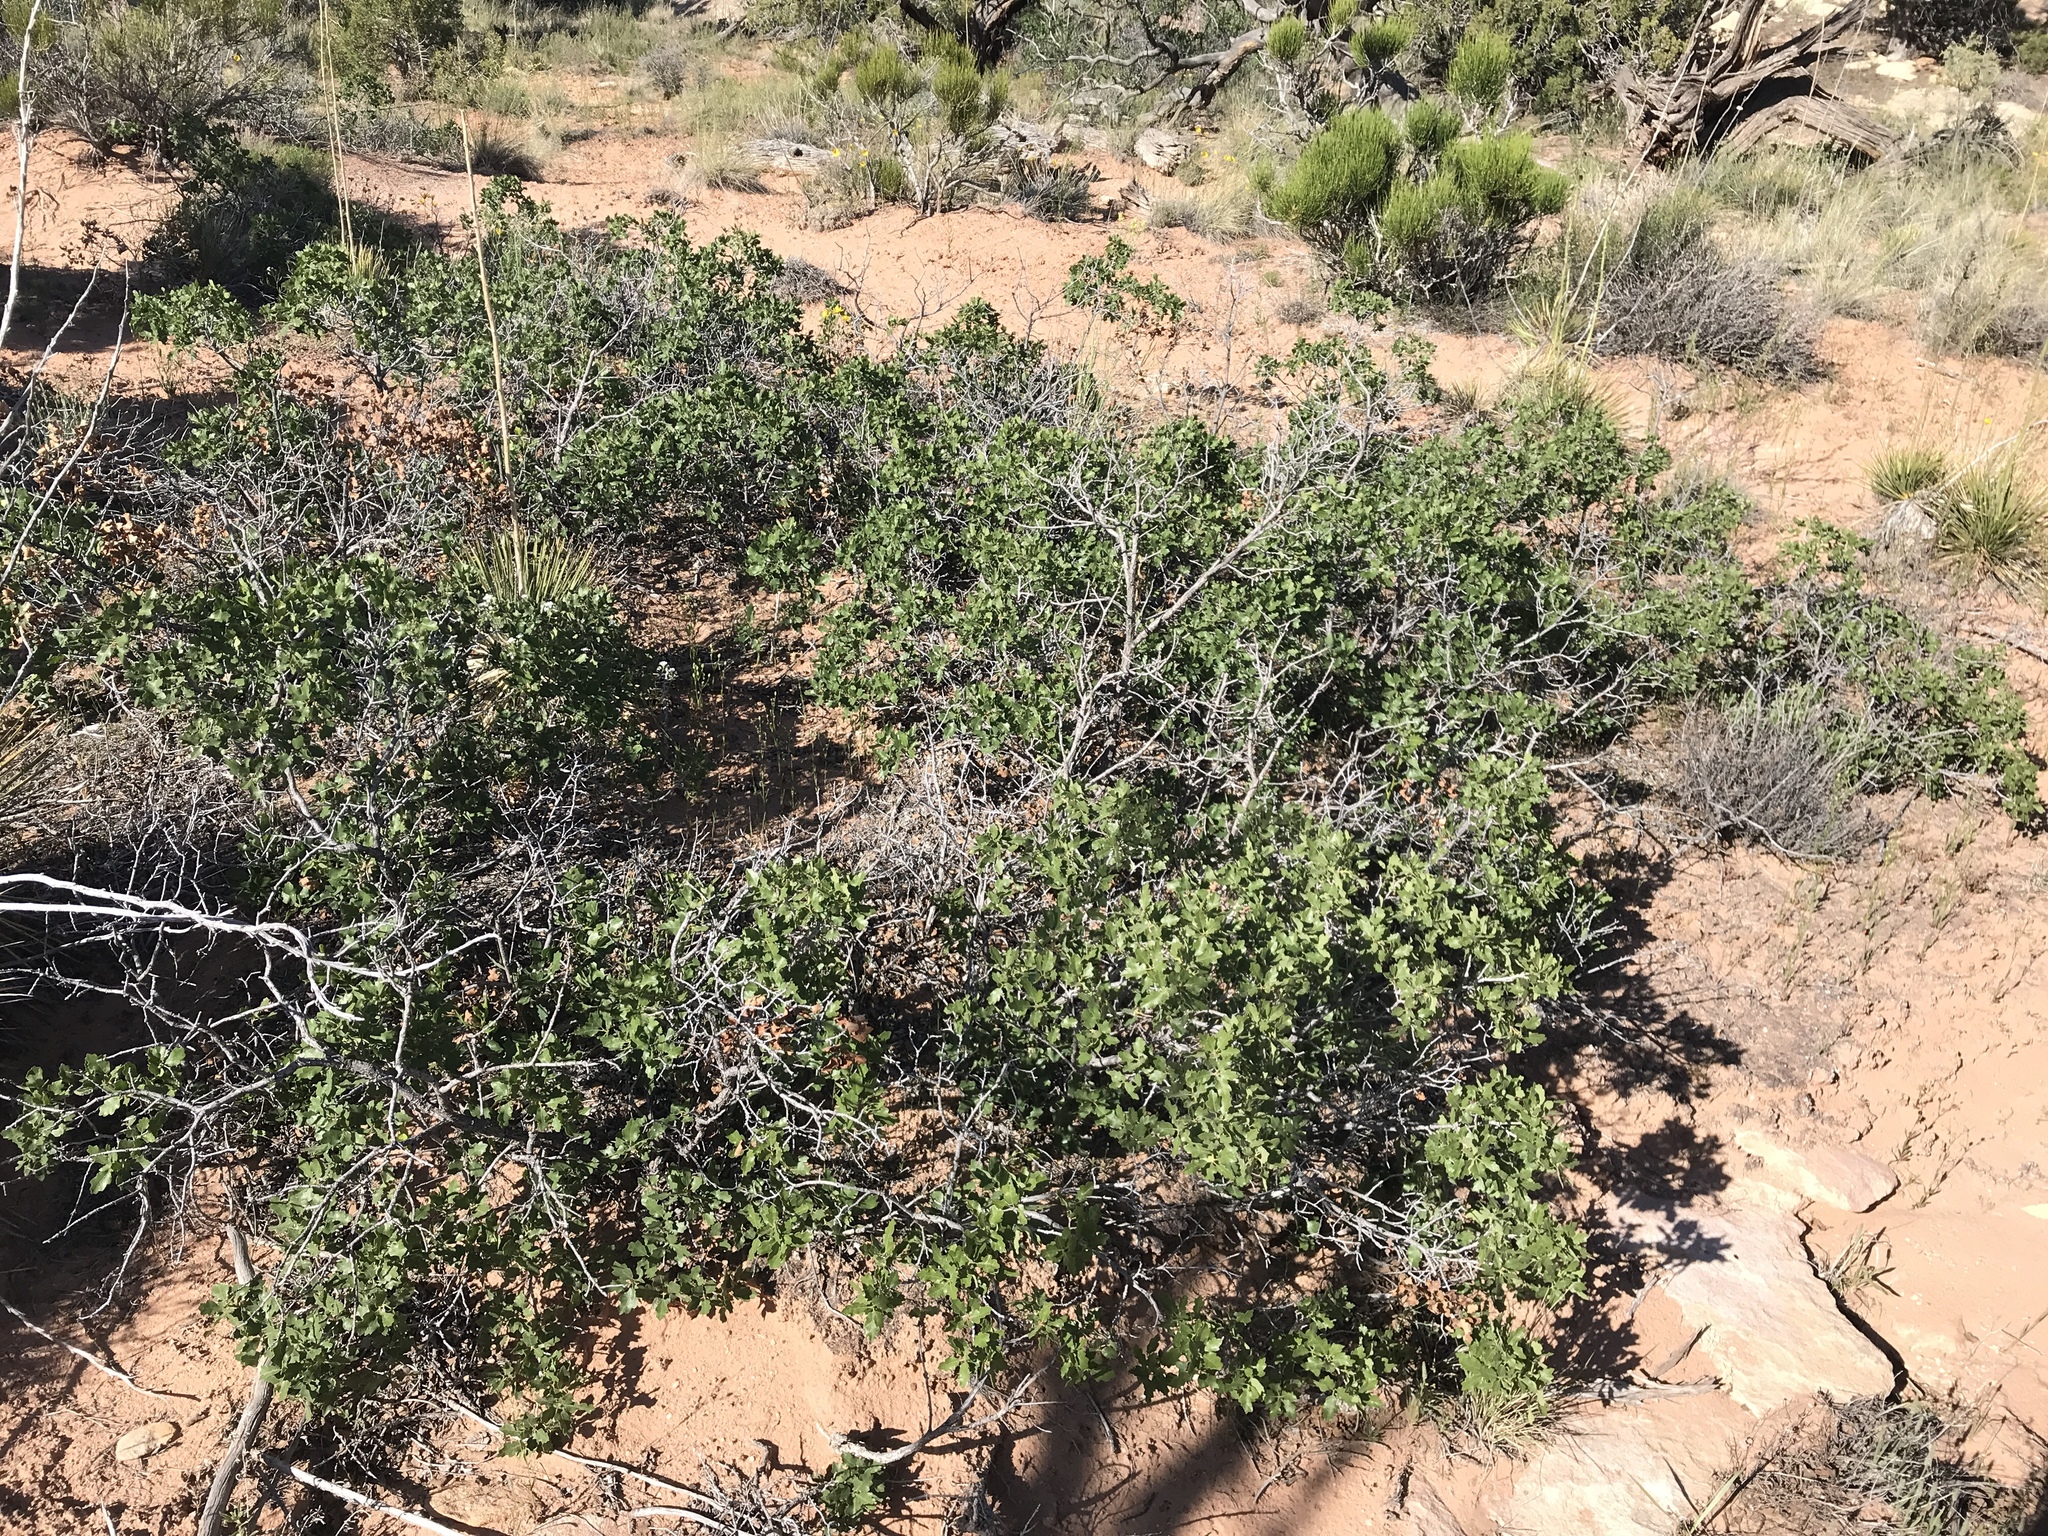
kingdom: Plantae
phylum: Tracheophyta
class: Magnoliopsida
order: Fagales
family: Fagaceae
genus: Quercus
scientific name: Quercus welshii
